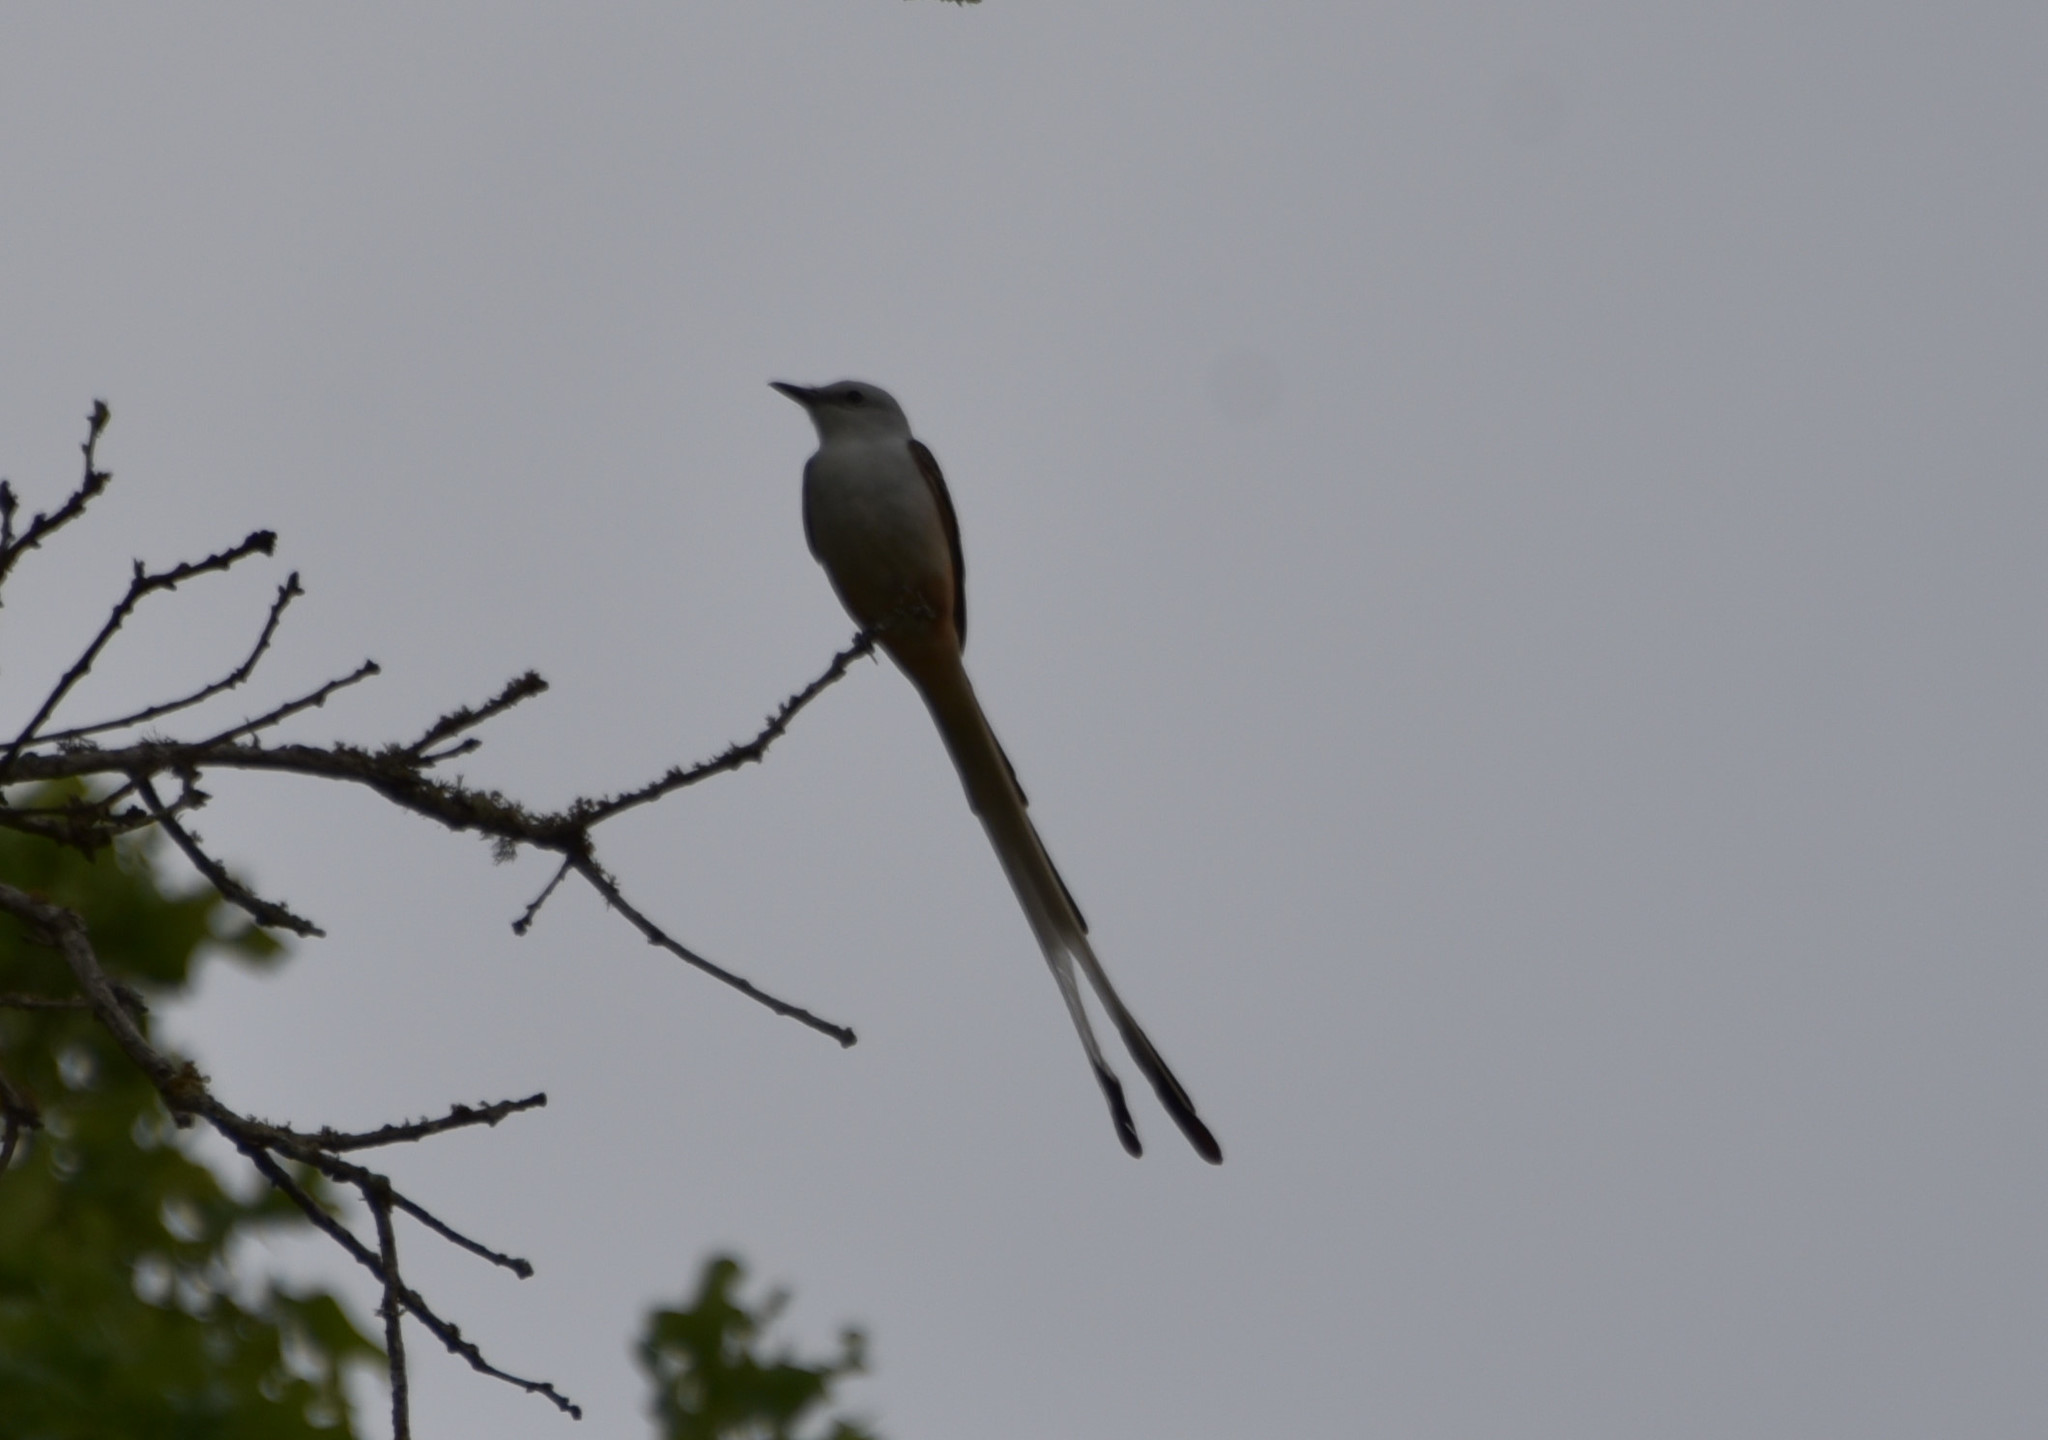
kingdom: Animalia
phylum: Chordata
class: Aves
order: Passeriformes
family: Tyrannidae
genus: Tyrannus
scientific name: Tyrannus forficatus
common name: Scissor-tailed flycatcher
